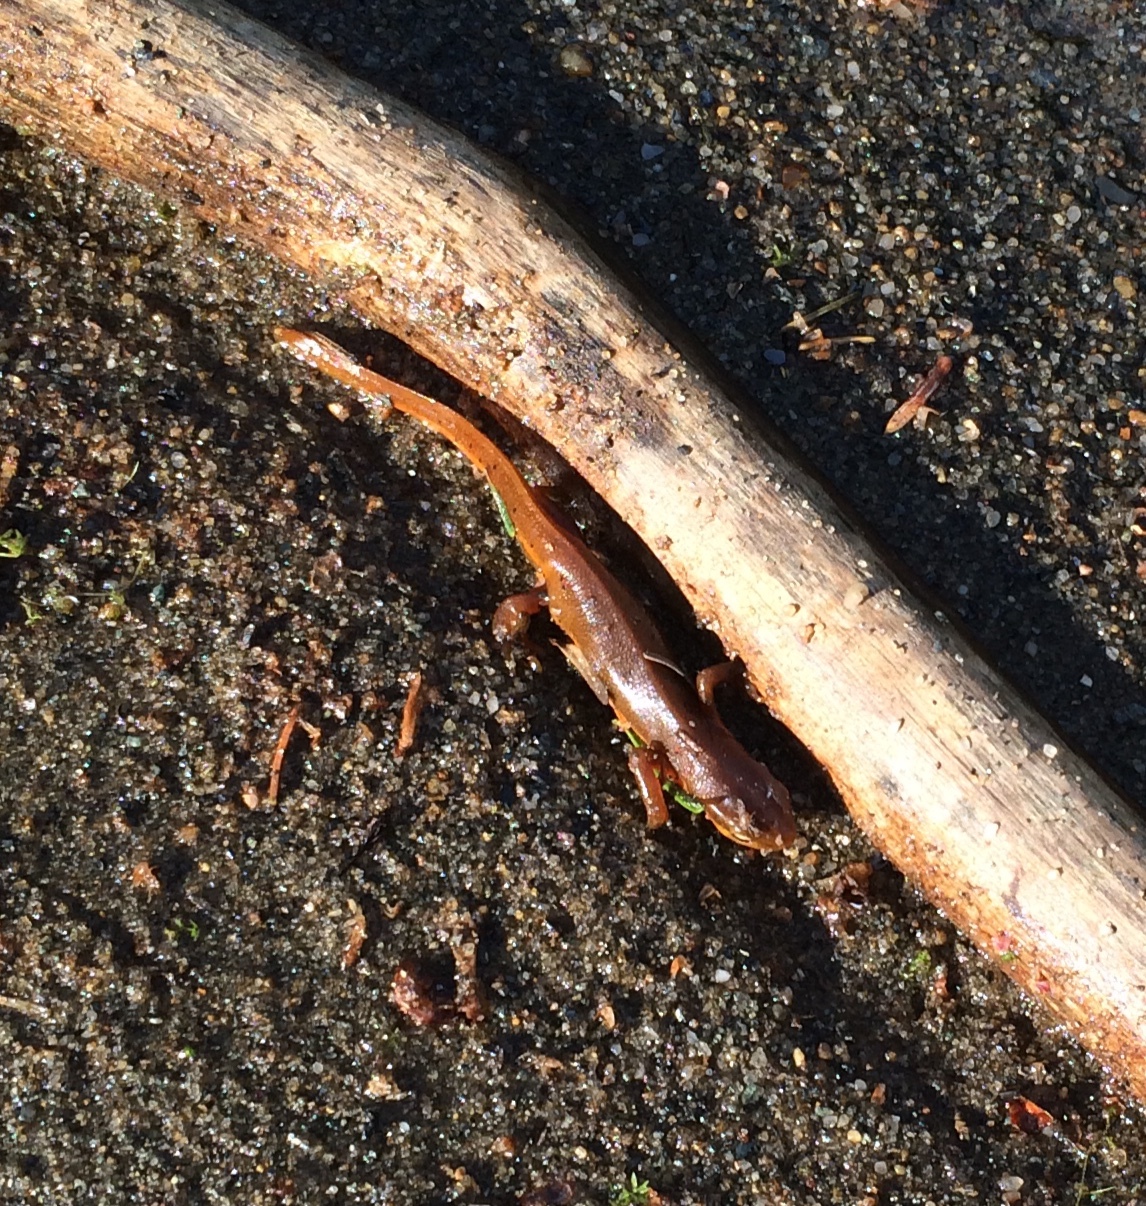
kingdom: Animalia
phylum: Chordata
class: Amphibia
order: Caudata
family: Salamandridae
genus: Notophthalmus
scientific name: Notophthalmus viridescens
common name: Eastern newt
